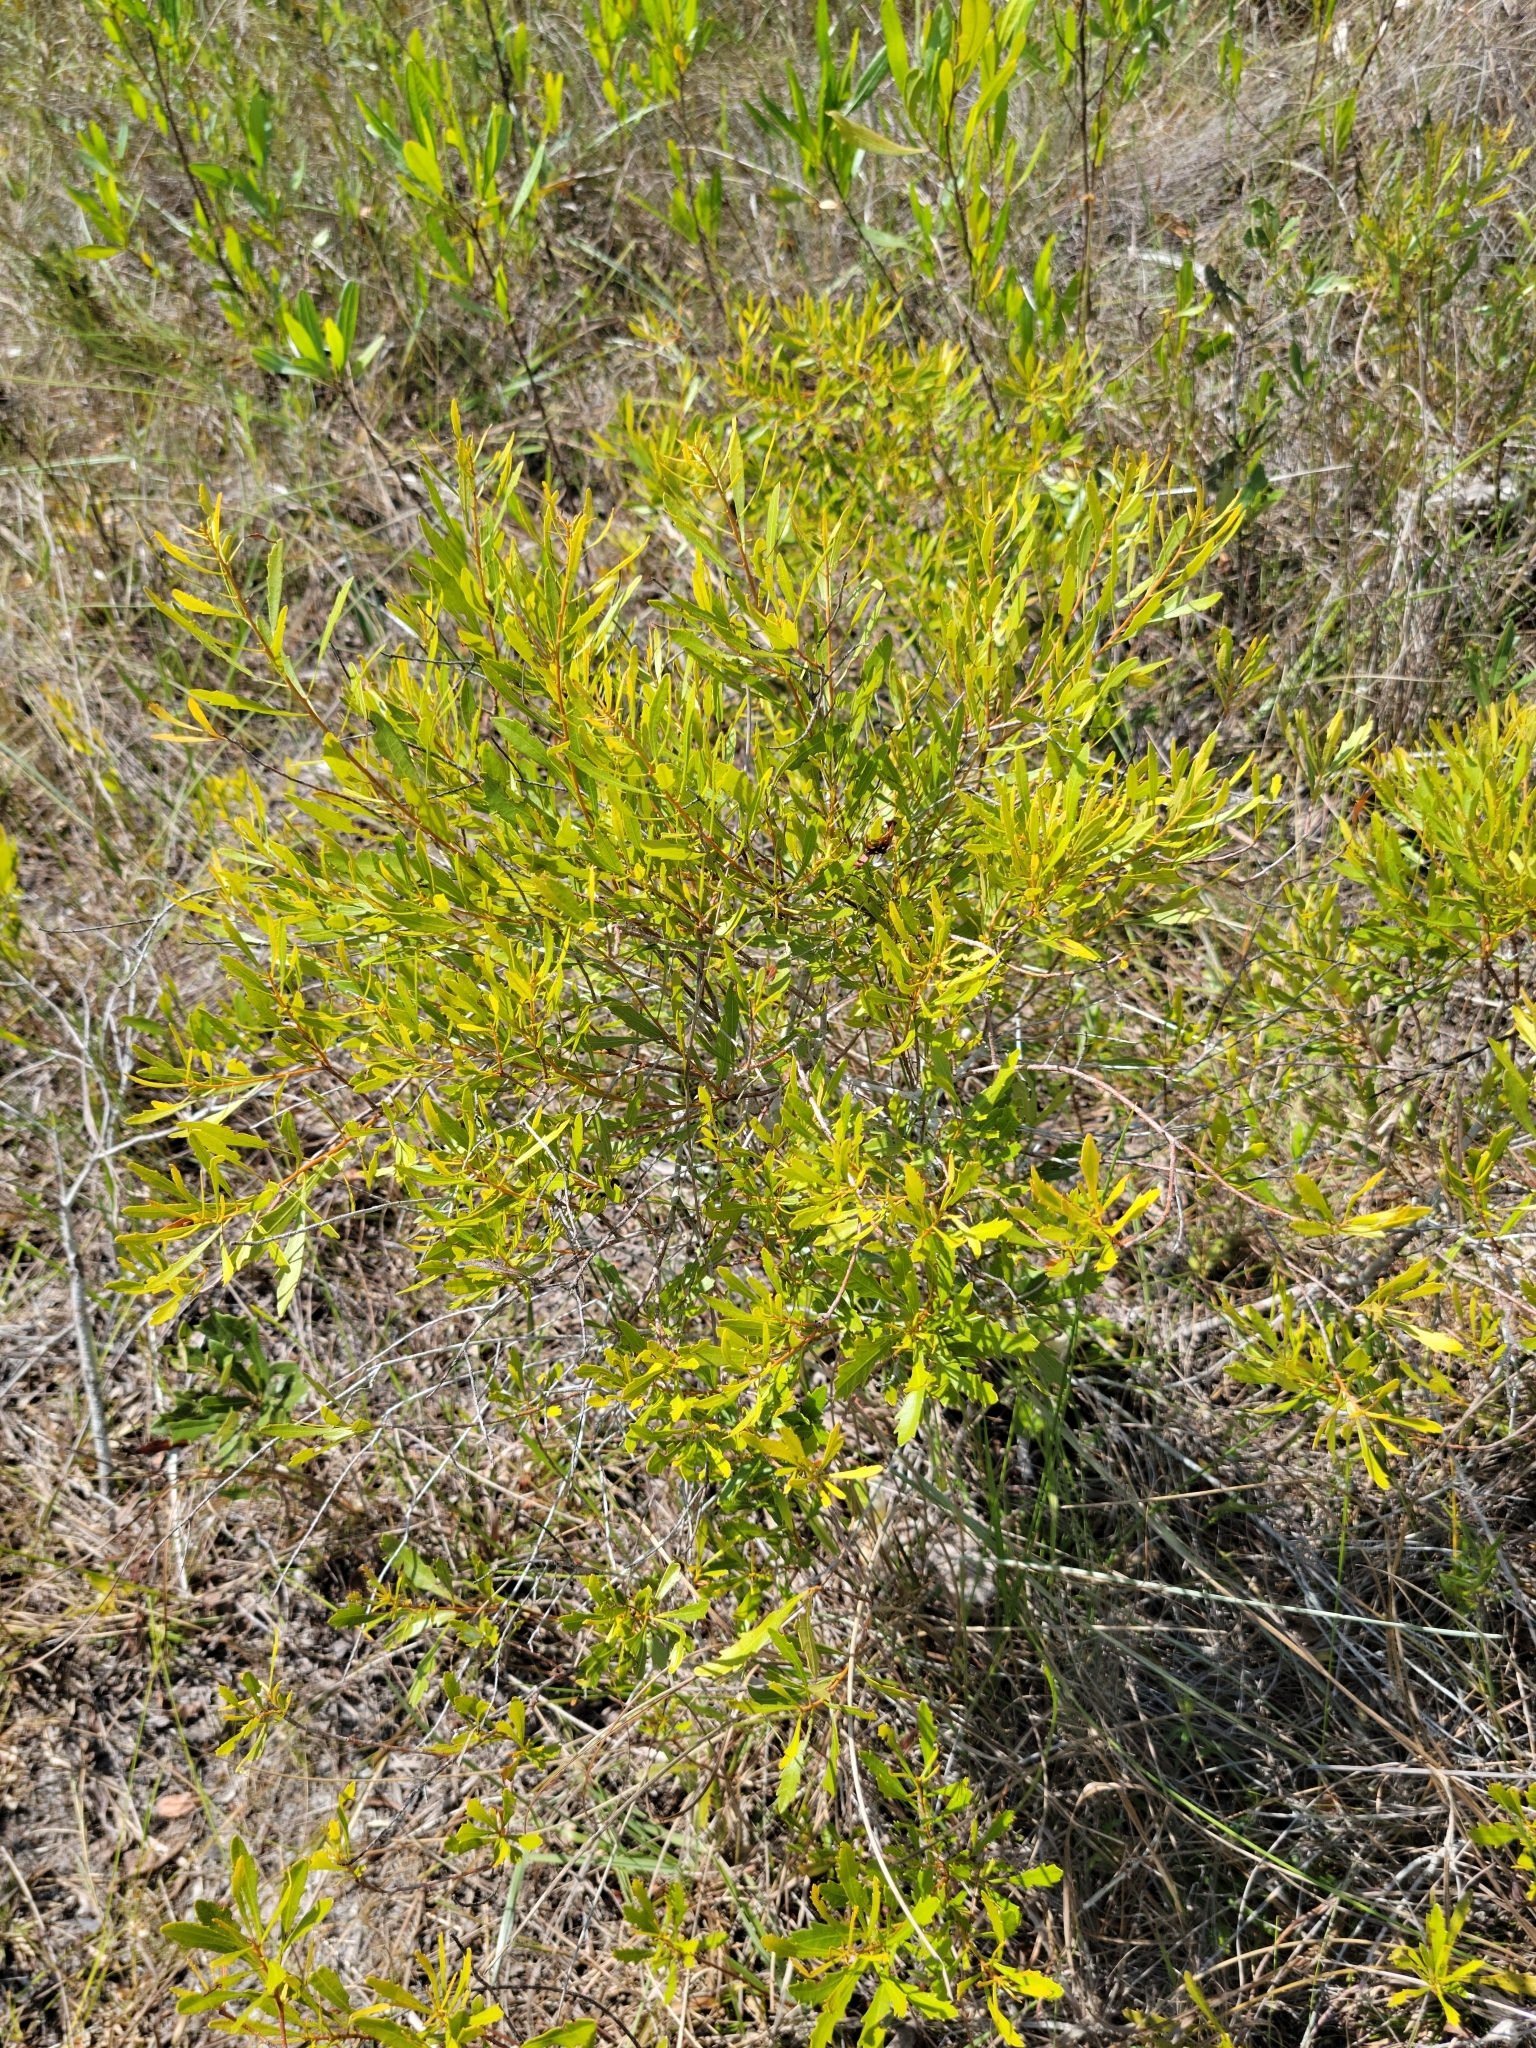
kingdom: Plantae
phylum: Tracheophyta
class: Magnoliopsida
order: Fagales
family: Myricaceae
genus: Morella
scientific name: Morella cerifera
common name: Wax myrtle
